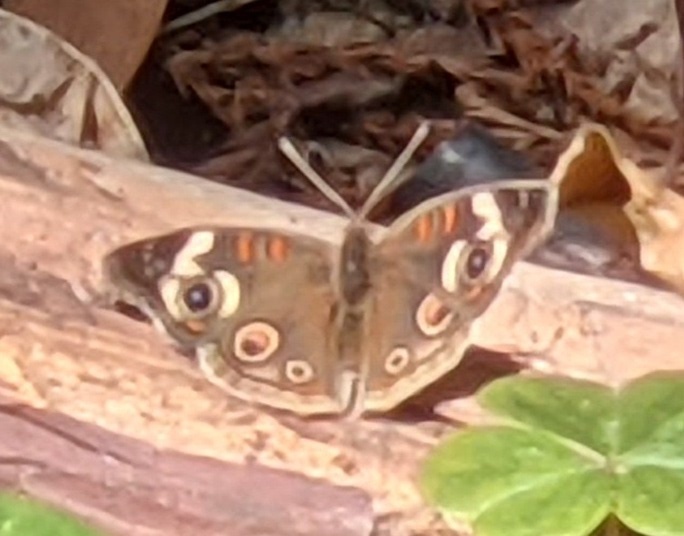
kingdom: Animalia
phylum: Arthropoda
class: Insecta
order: Lepidoptera
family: Nymphalidae
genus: Junonia
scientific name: Junonia grisea
